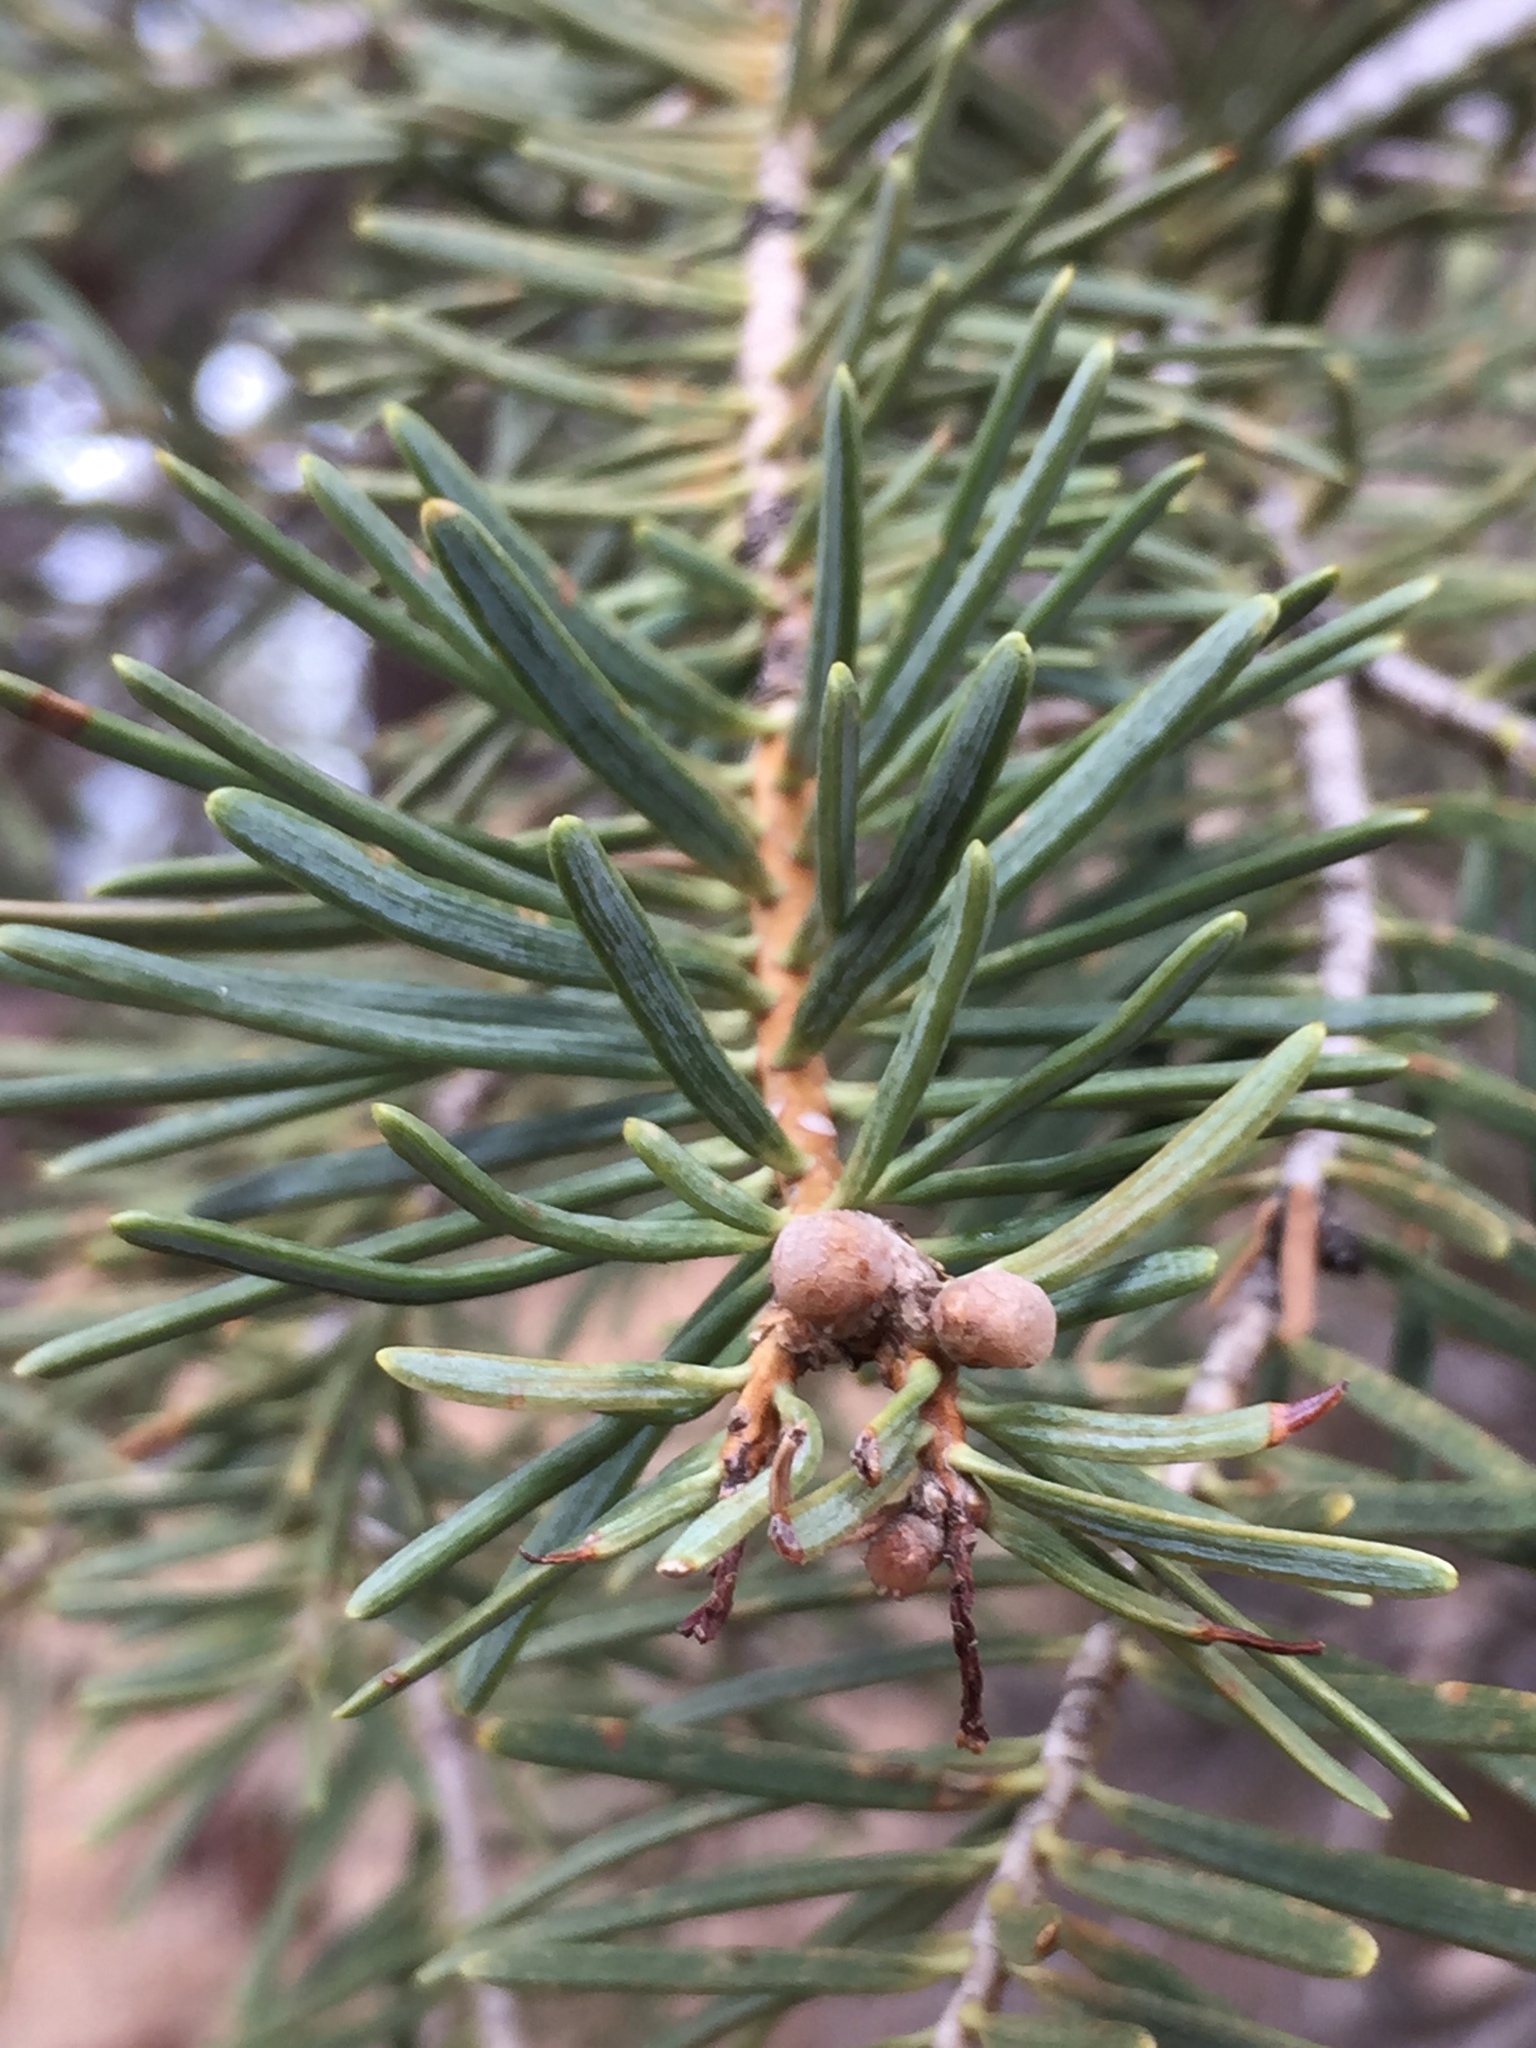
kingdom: Plantae
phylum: Tracheophyta
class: Pinopsida
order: Pinales
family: Pinaceae
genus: Pinus
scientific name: Pinus monophylla
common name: One-leaved nut pine
